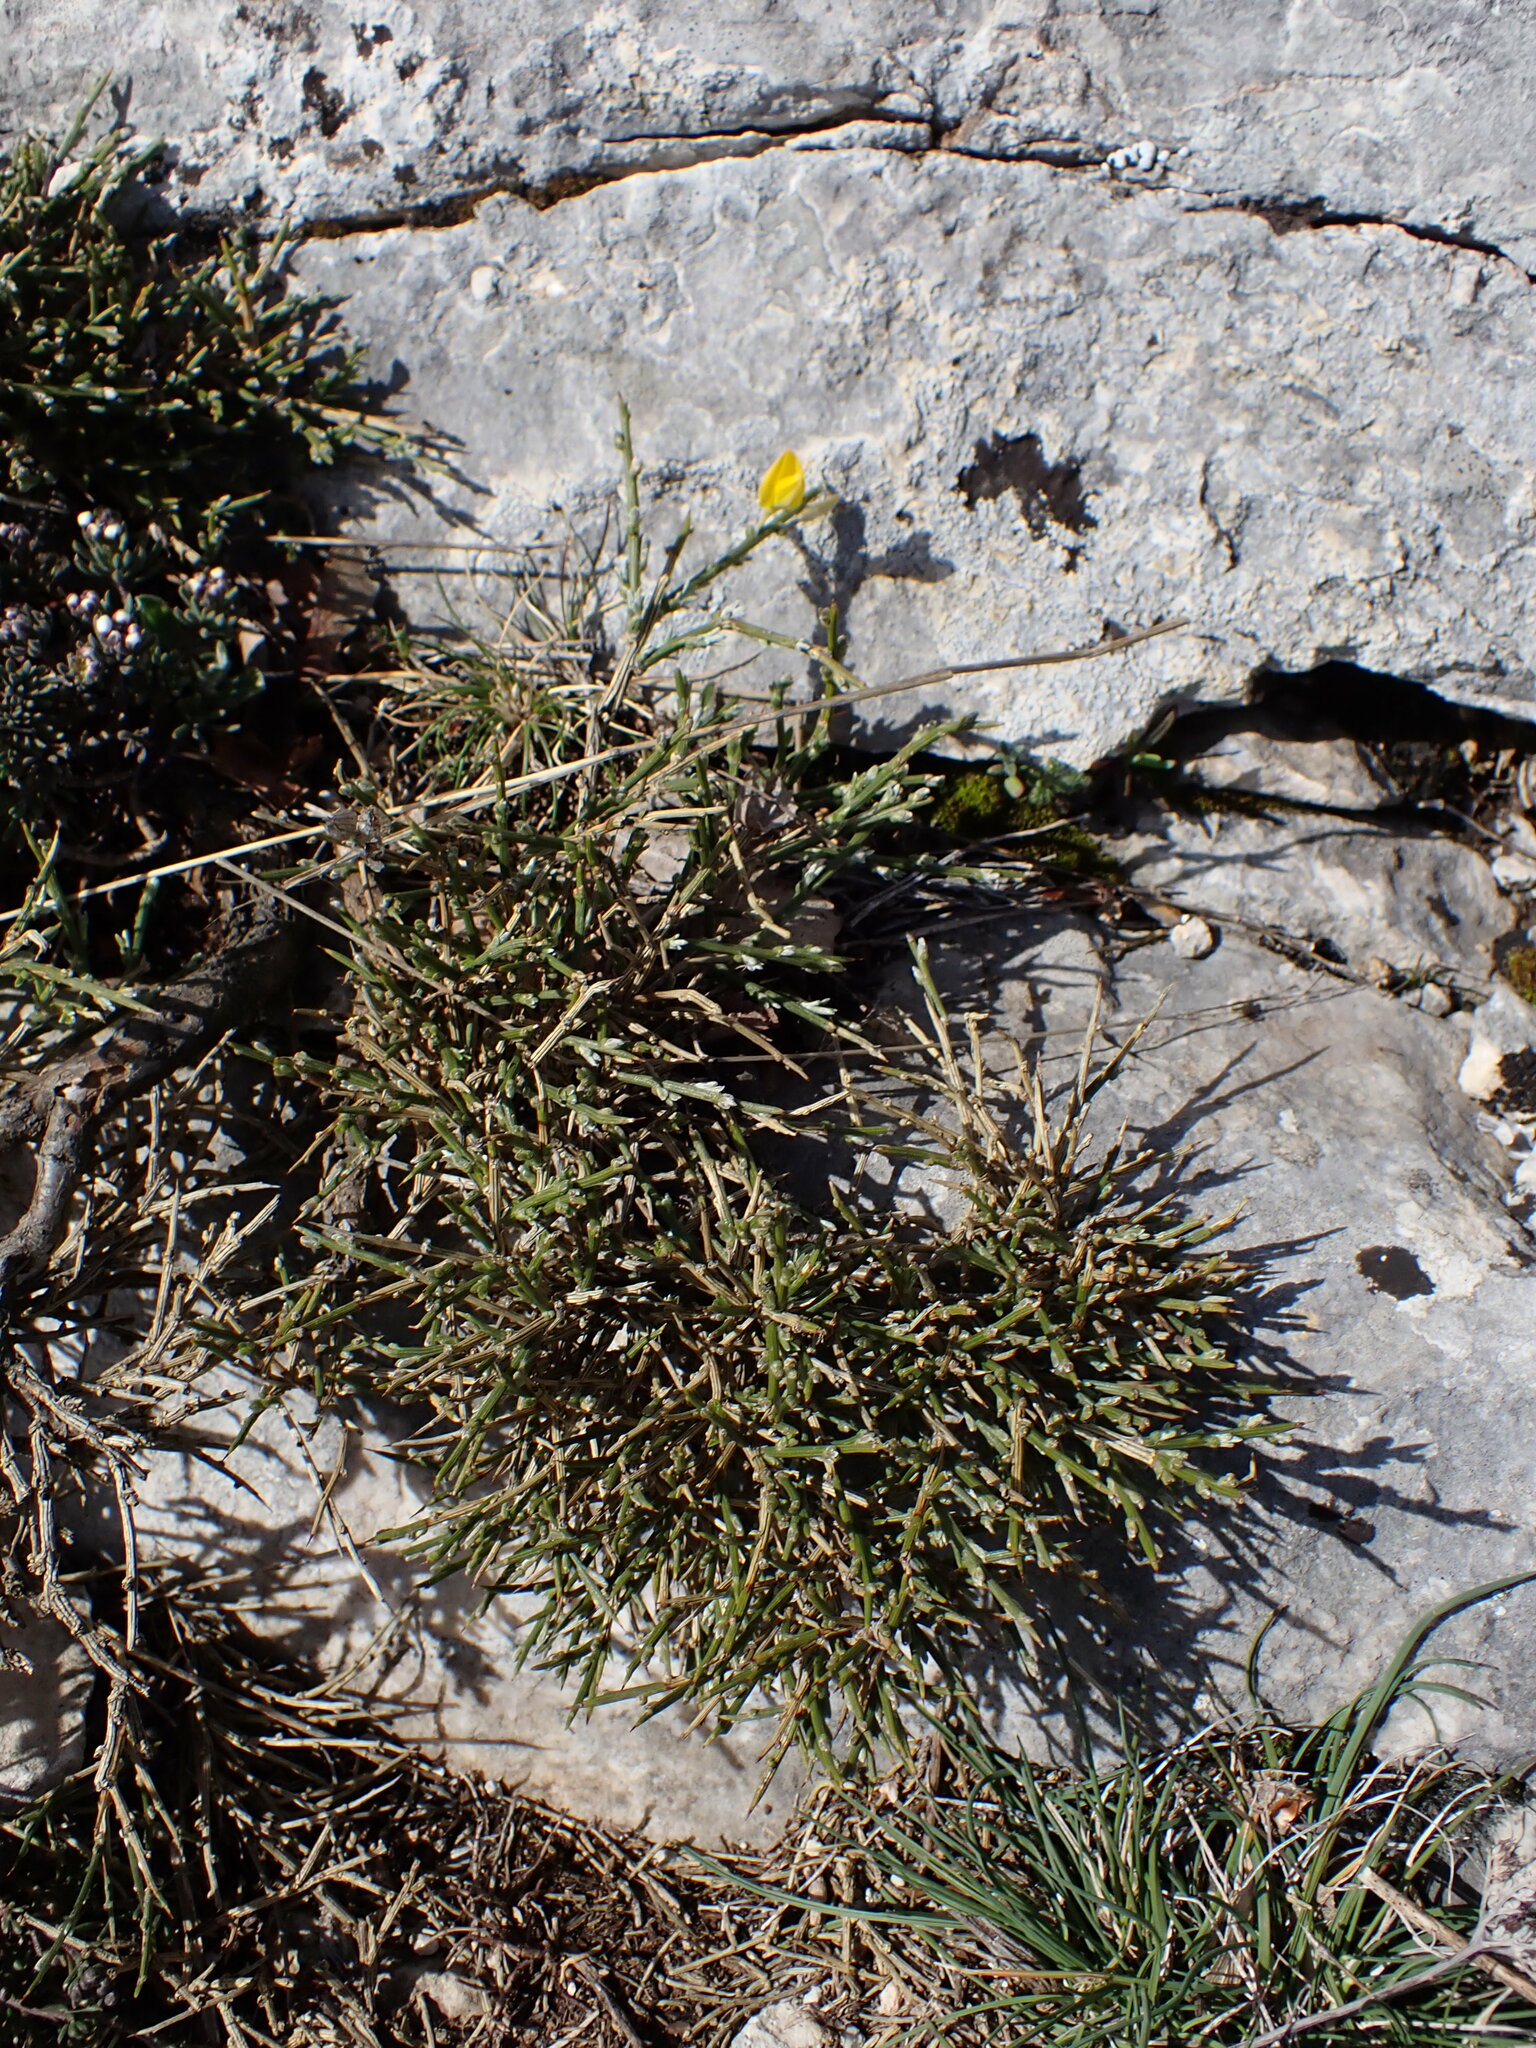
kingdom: Plantae
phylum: Tracheophyta
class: Magnoliopsida
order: Fabales
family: Fabaceae
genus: Genista
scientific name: Genista lobelii
